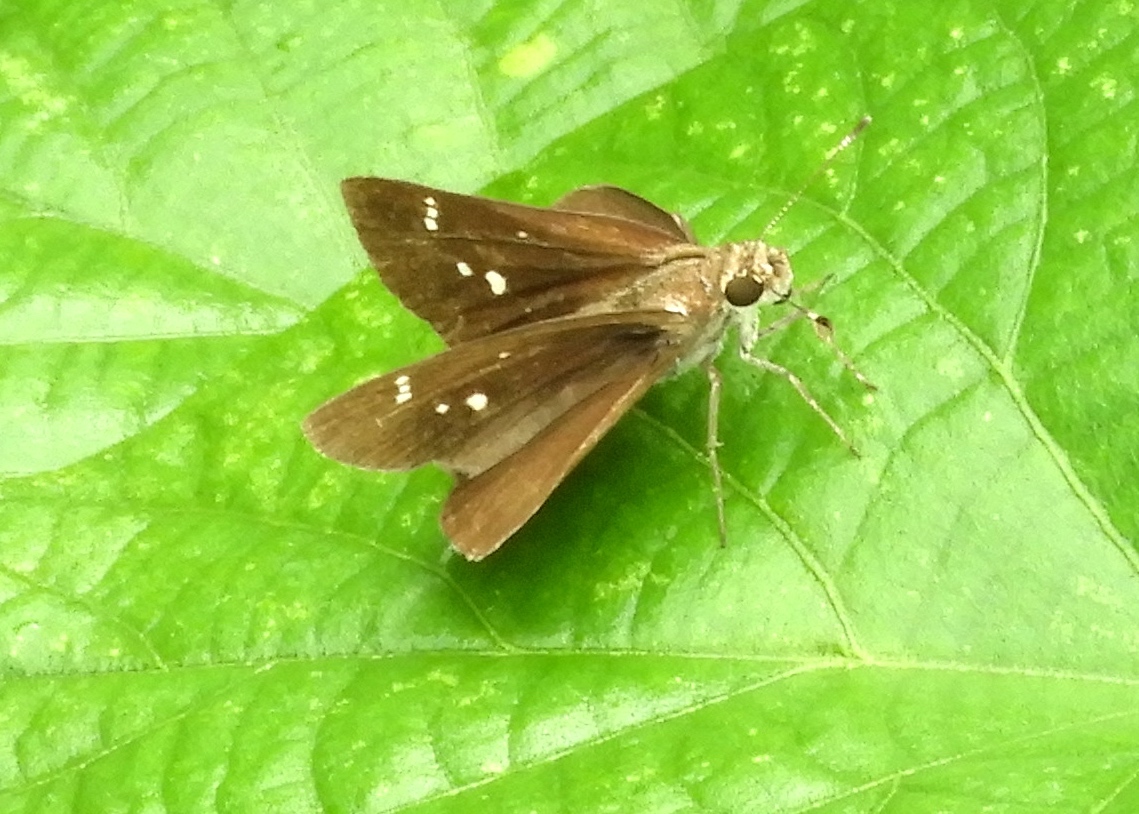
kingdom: Animalia
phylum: Arthropoda
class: Insecta
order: Lepidoptera
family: Hesperiidae
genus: Lerodea
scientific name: Lerodea eufala
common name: Eufala skipper
